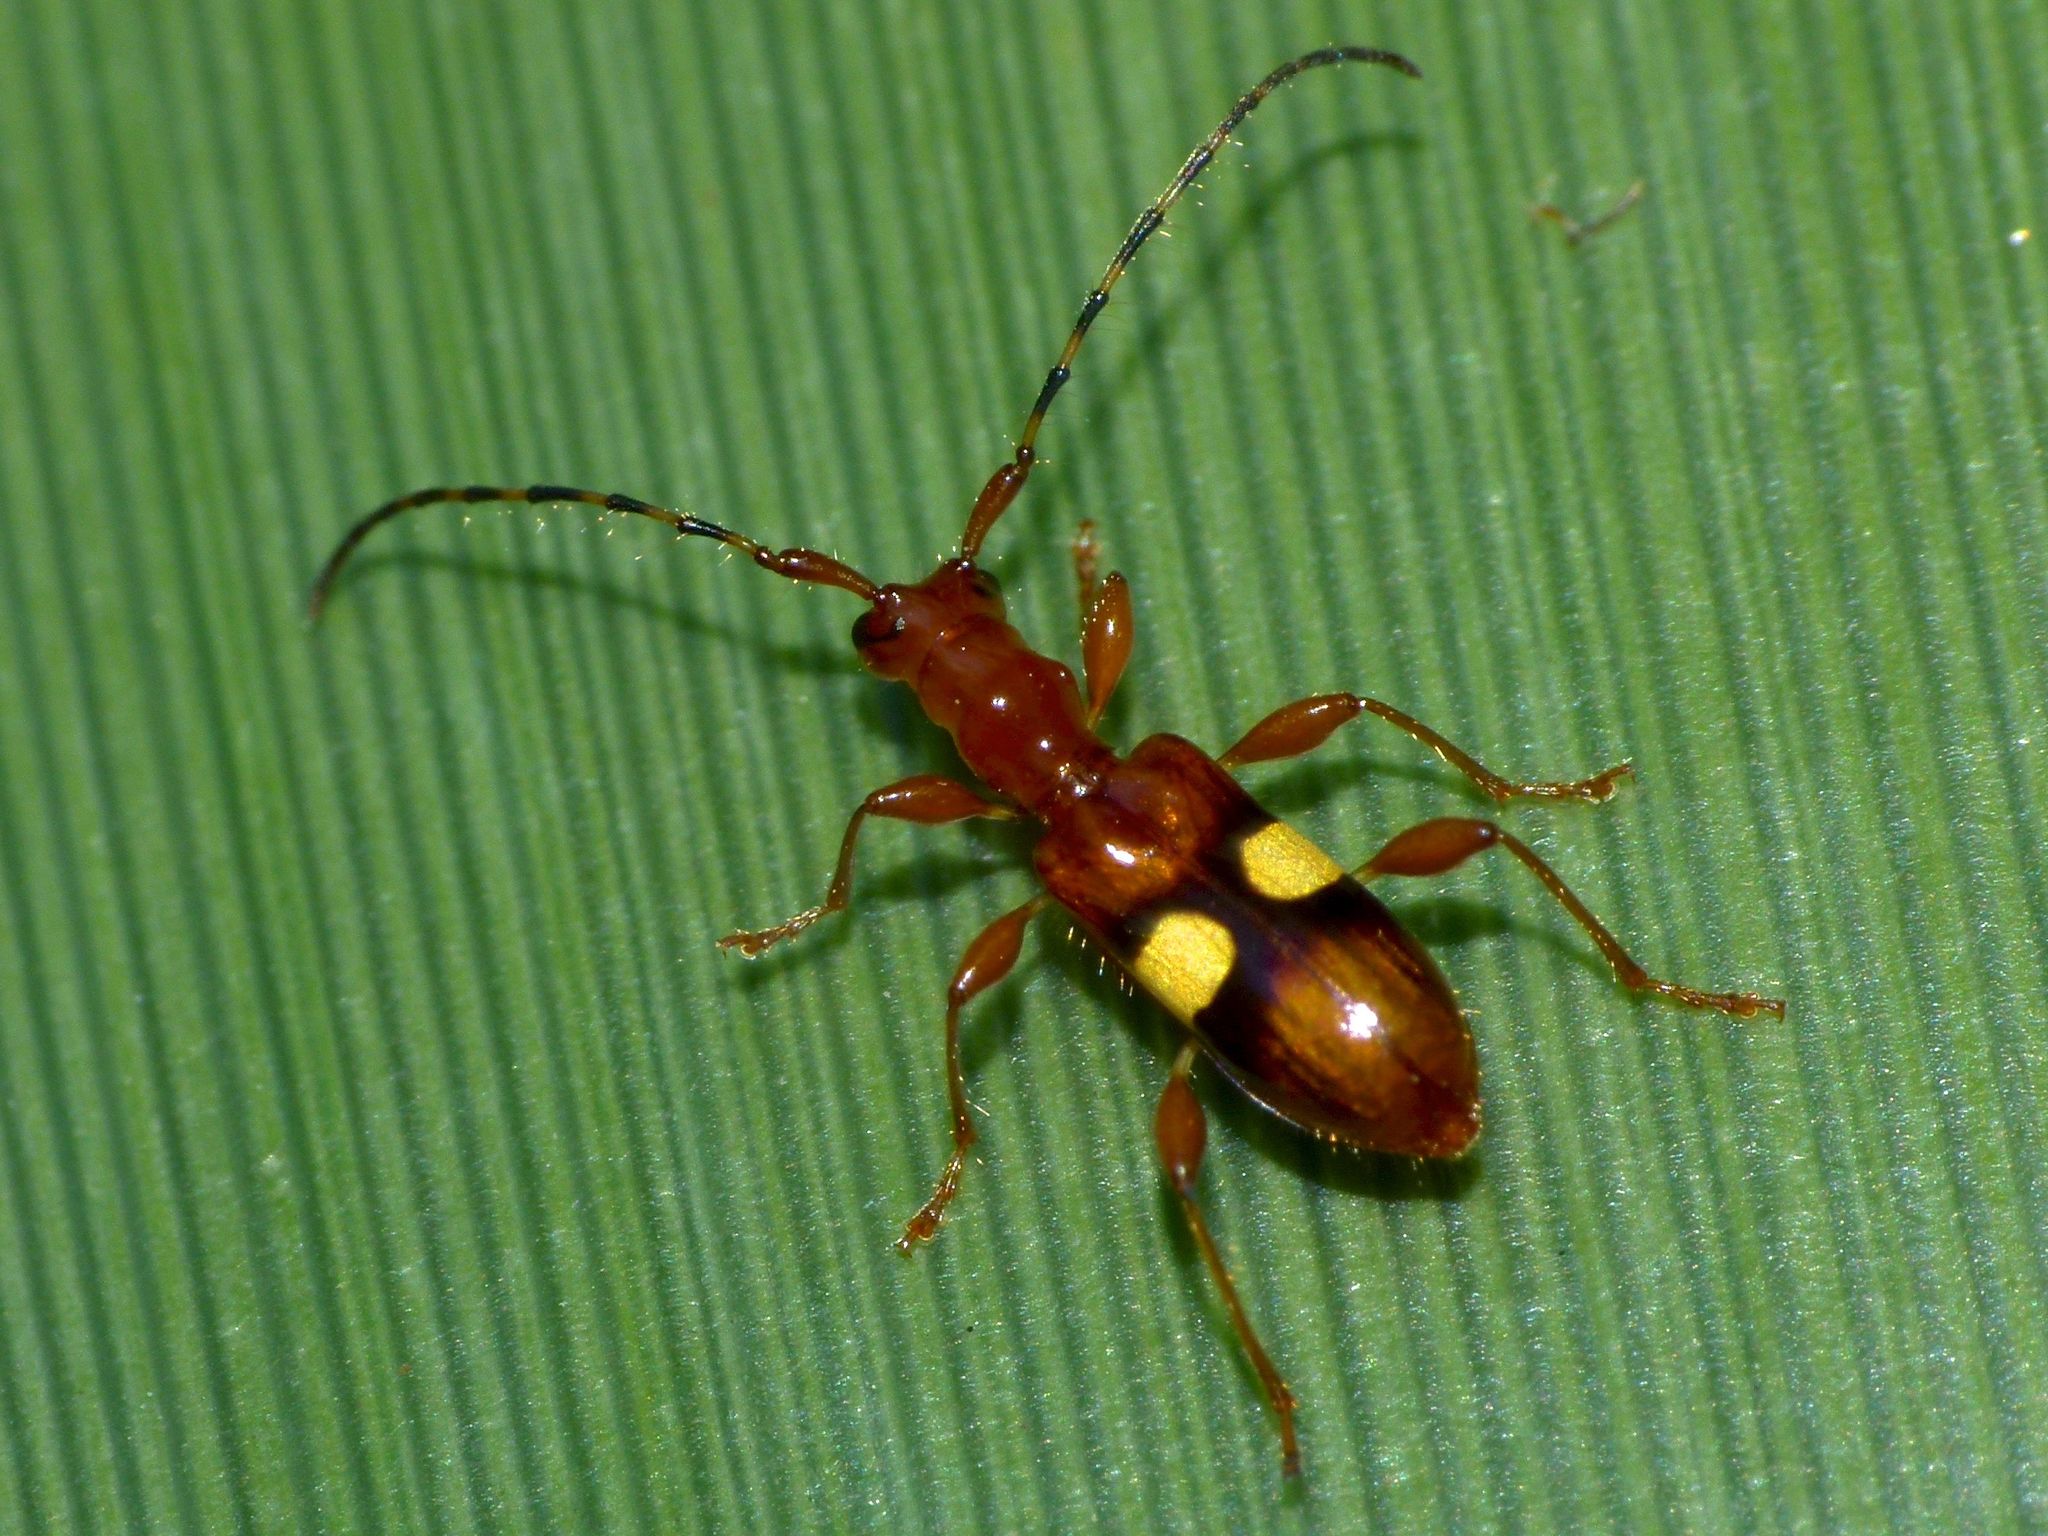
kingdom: Animalia
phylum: Arthropoda
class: Insecta
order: Coleoptera
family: Cerambycidae
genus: Zorion
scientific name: Zorion australe
